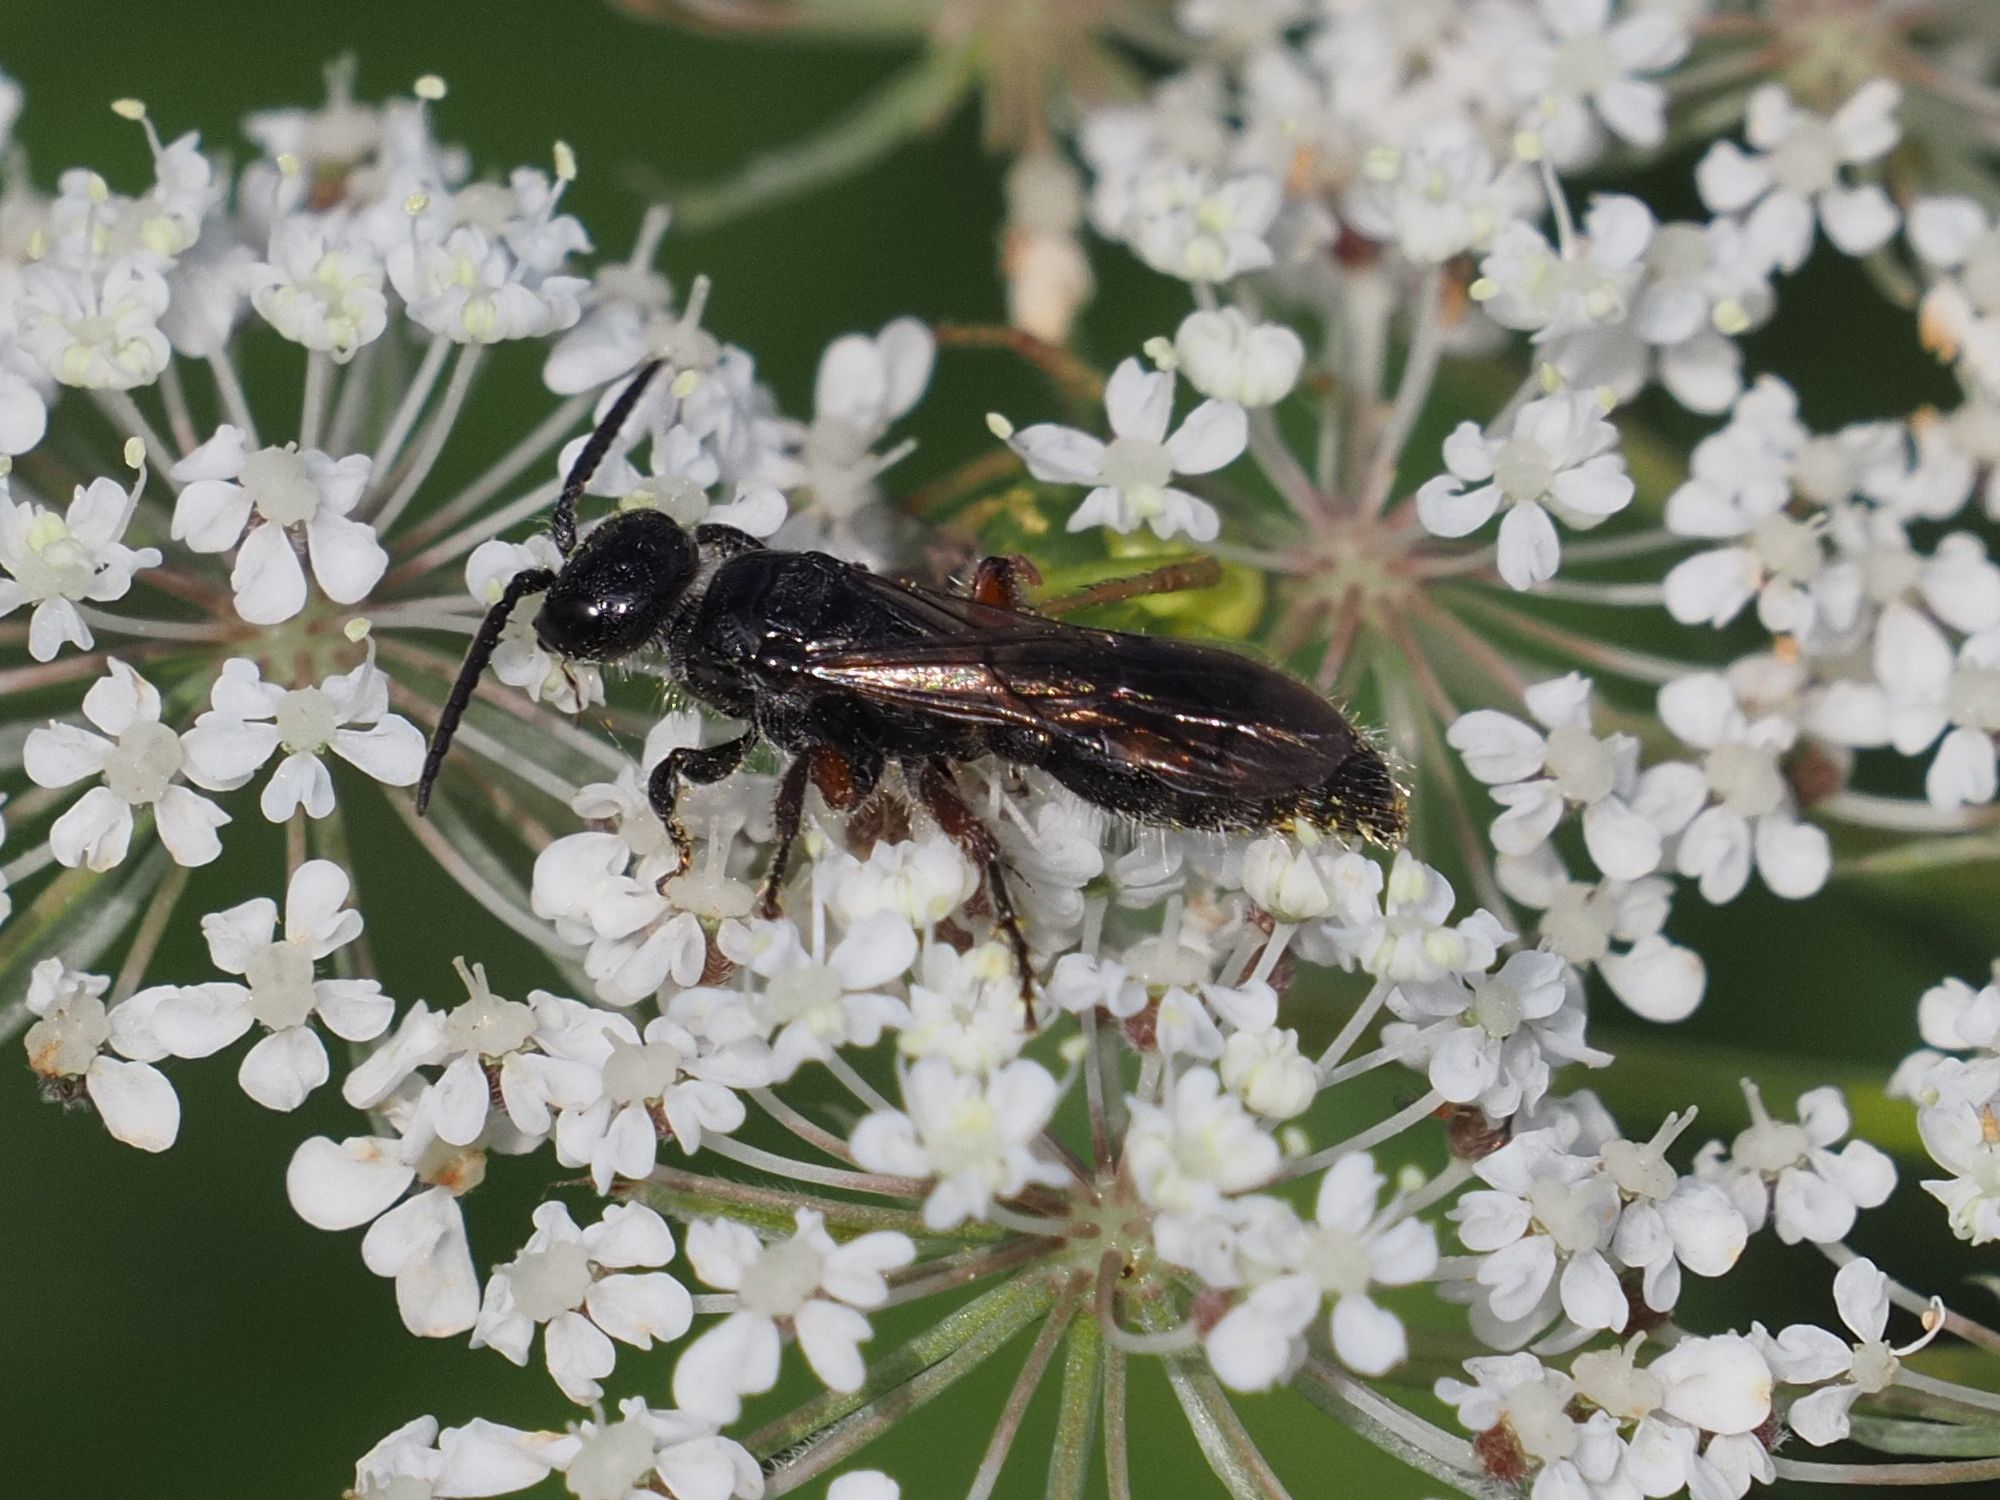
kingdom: Animalia
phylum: Arthropoda
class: Insecta
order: Hymenoptera
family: Tiphiidae
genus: Tiphia
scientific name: Tiphia femorata
